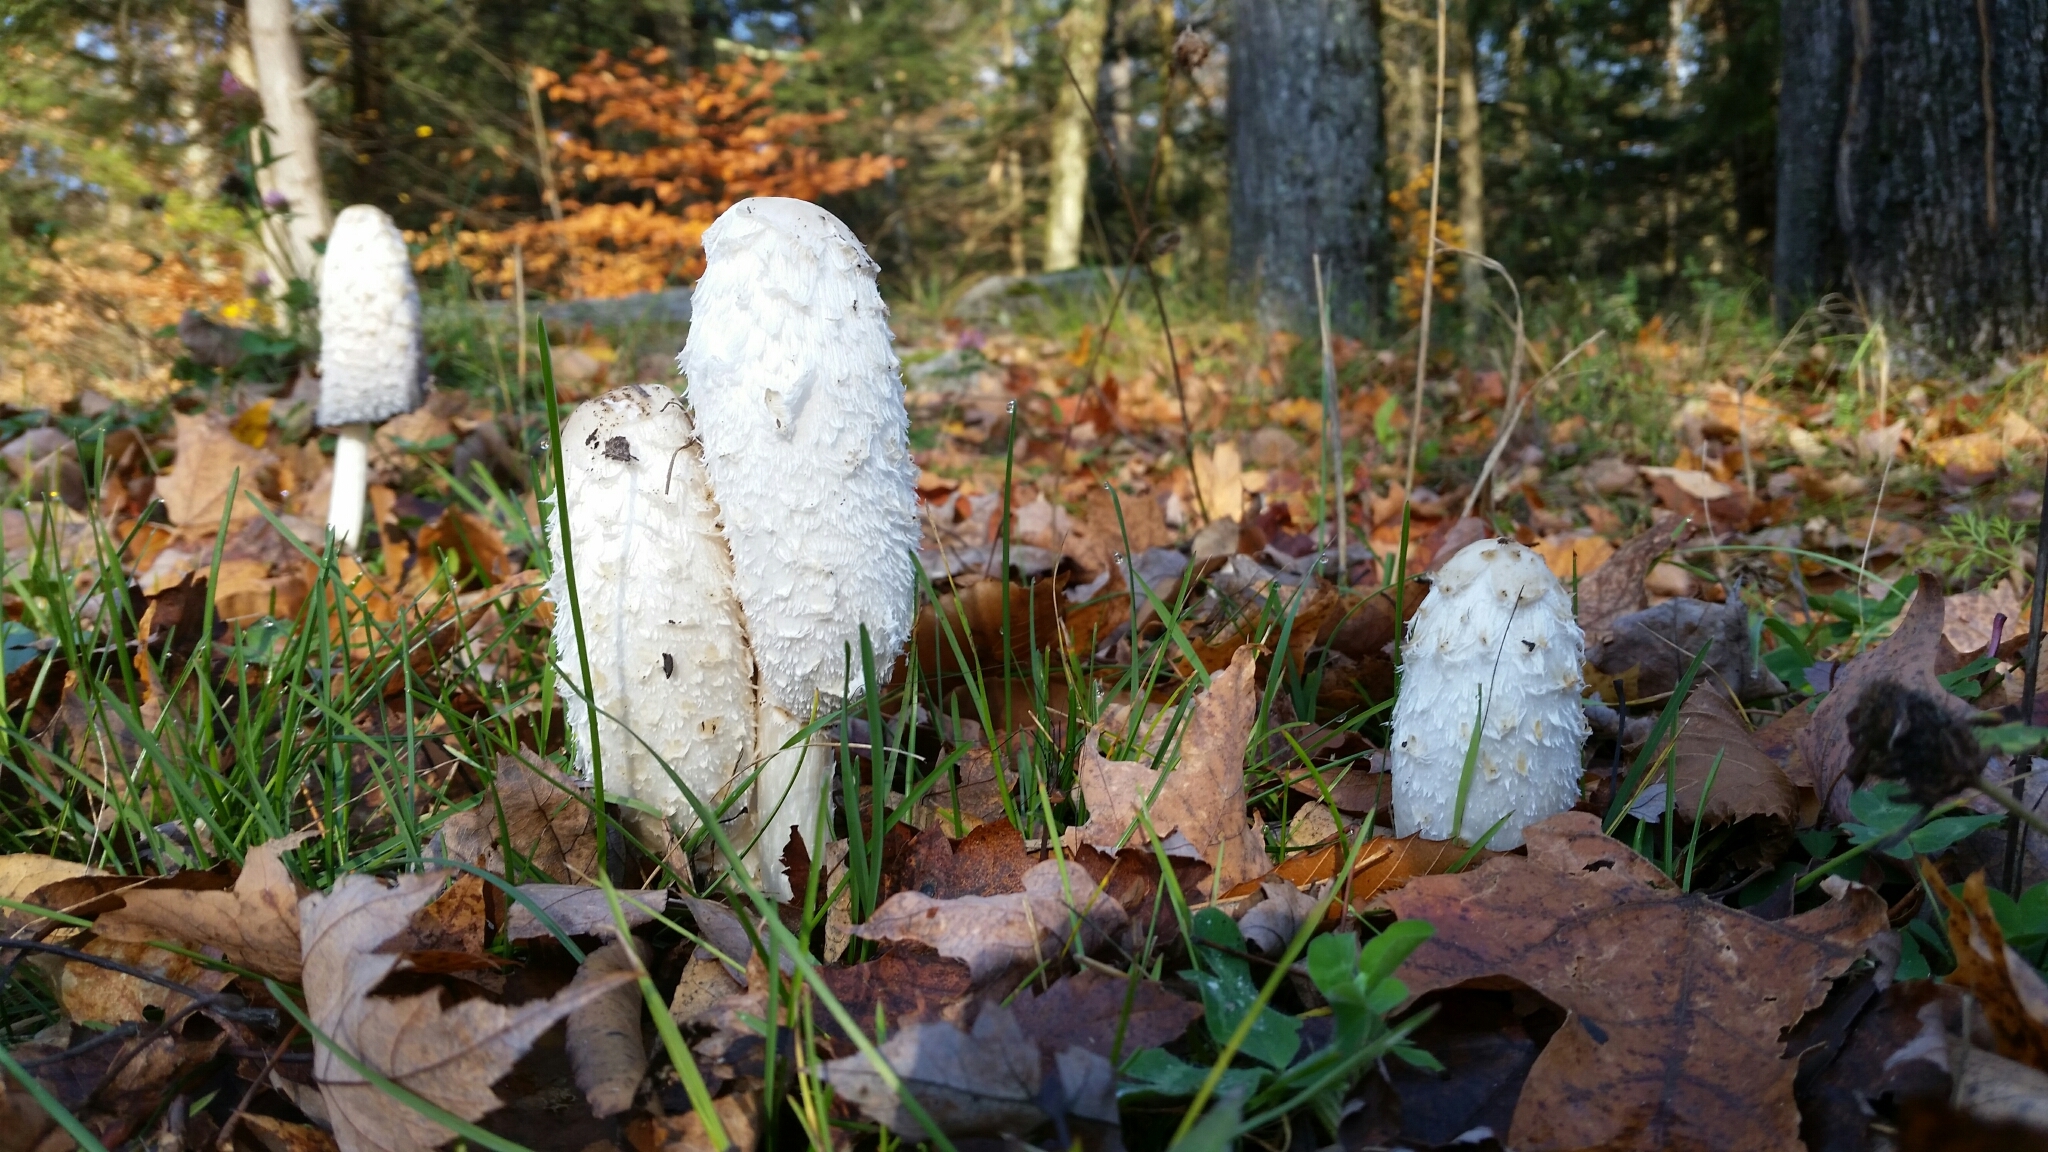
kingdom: Fungi
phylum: Basidiomycota
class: Agaricomycetes
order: Agaricales
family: Agaricaceae
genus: Coprinus
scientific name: Coprinus comatus
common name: Lawyer's wig
